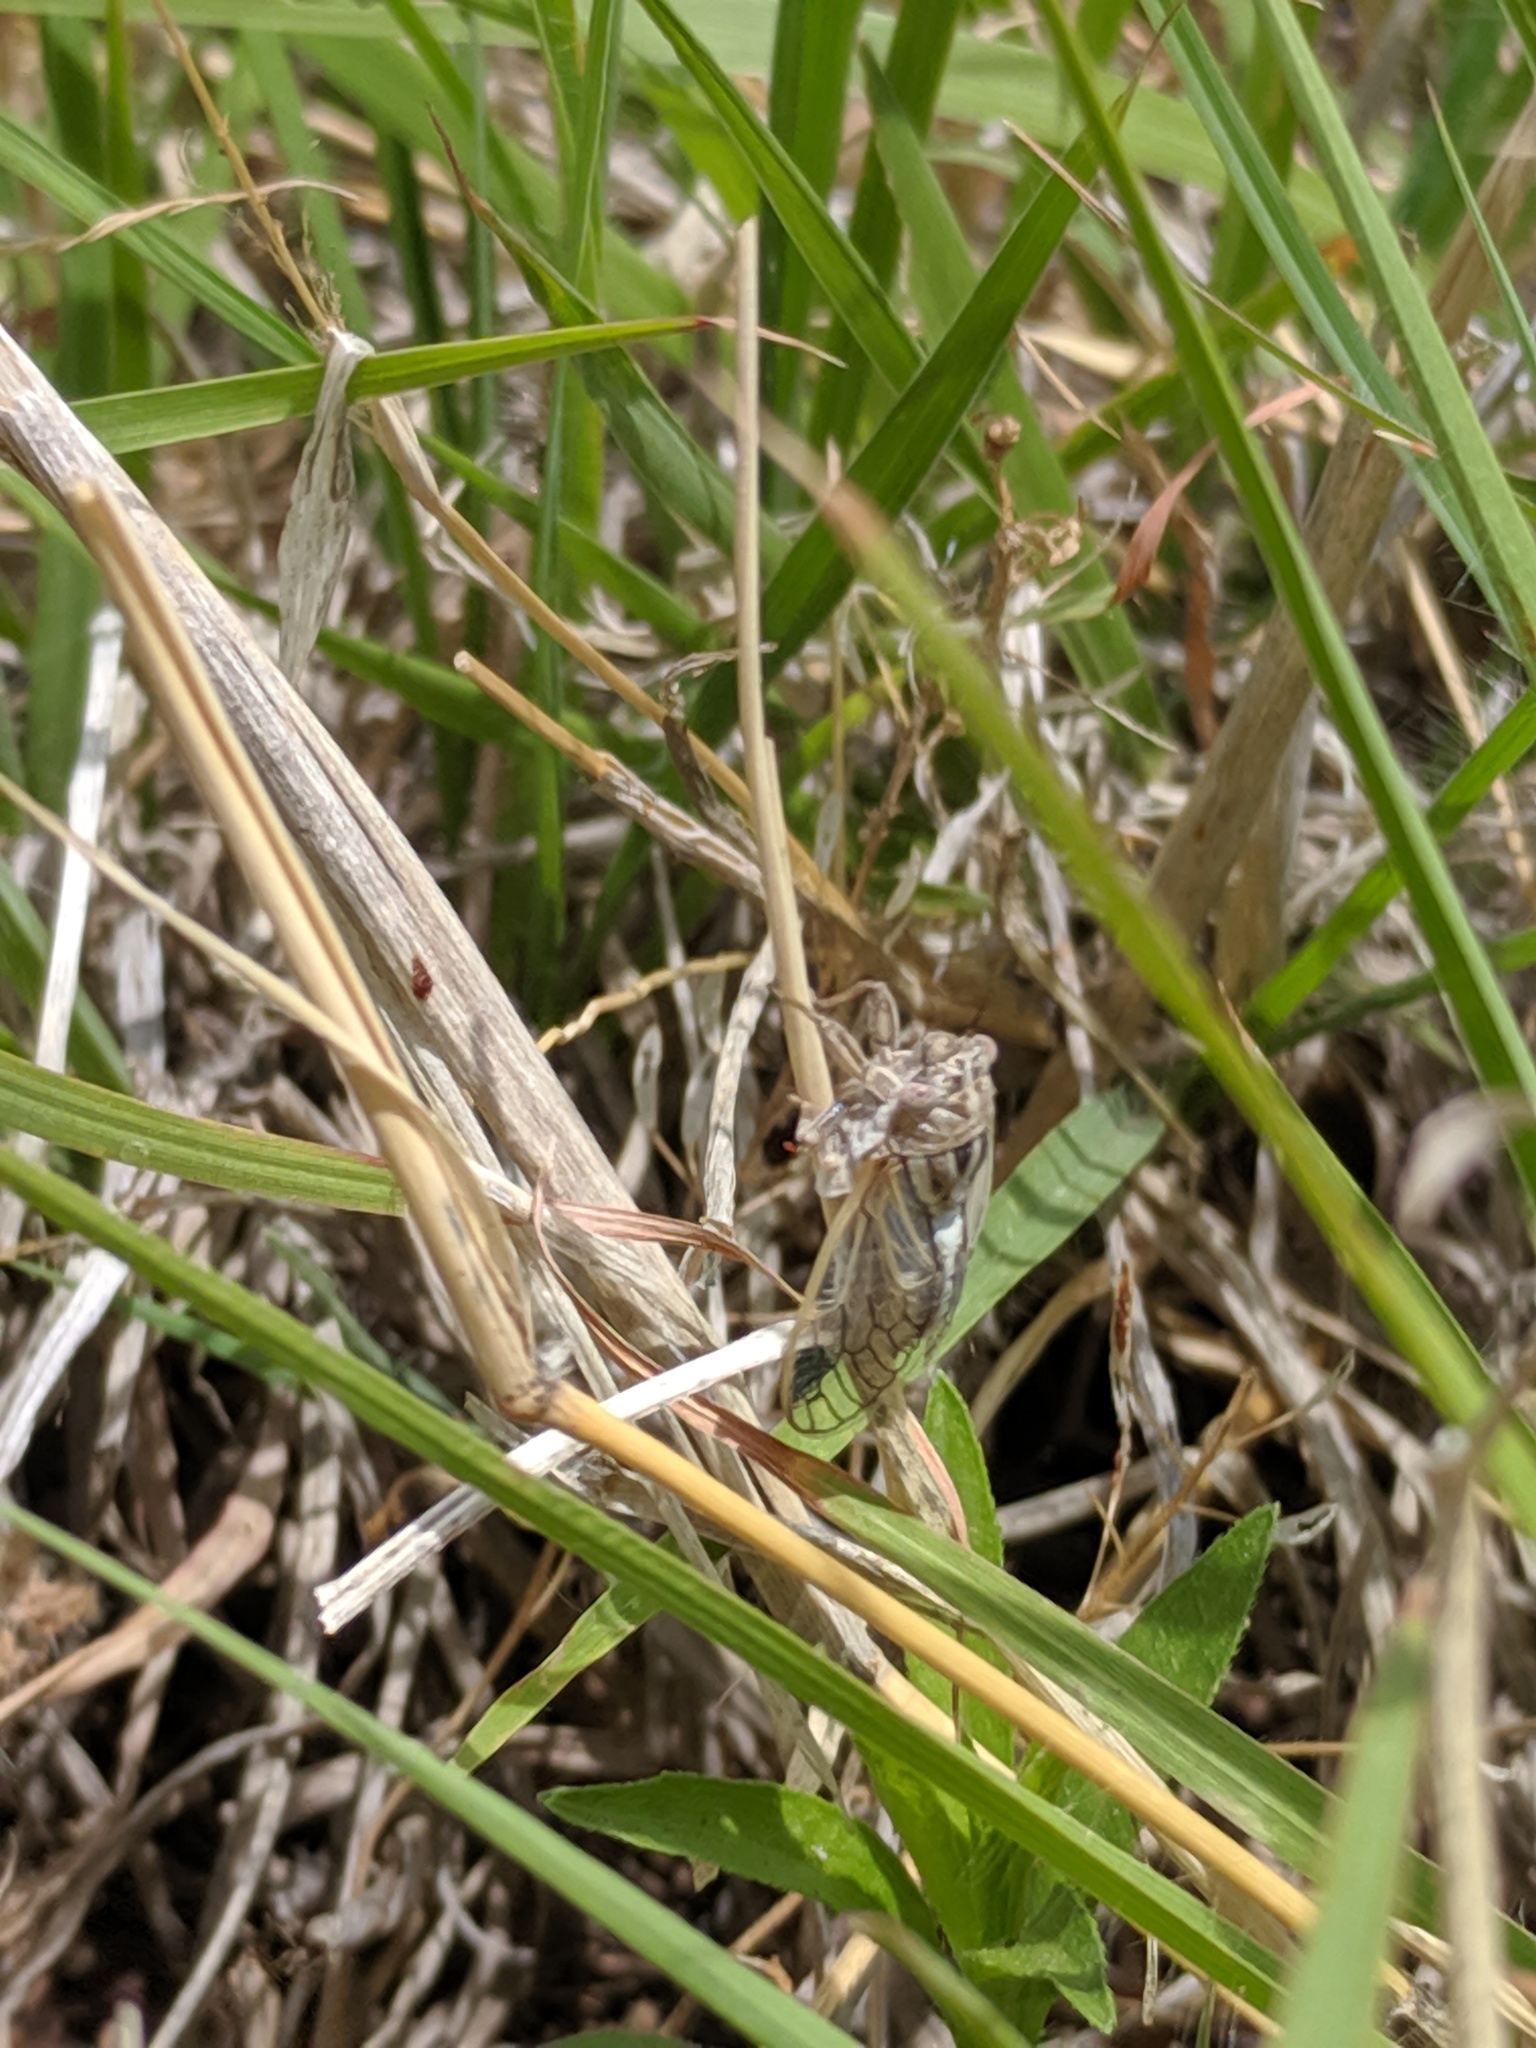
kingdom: Animalia
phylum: Arthropoda
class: Insecta
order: Hemiptera
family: Cicadidae
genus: Beameria
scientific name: Beameria venosa
